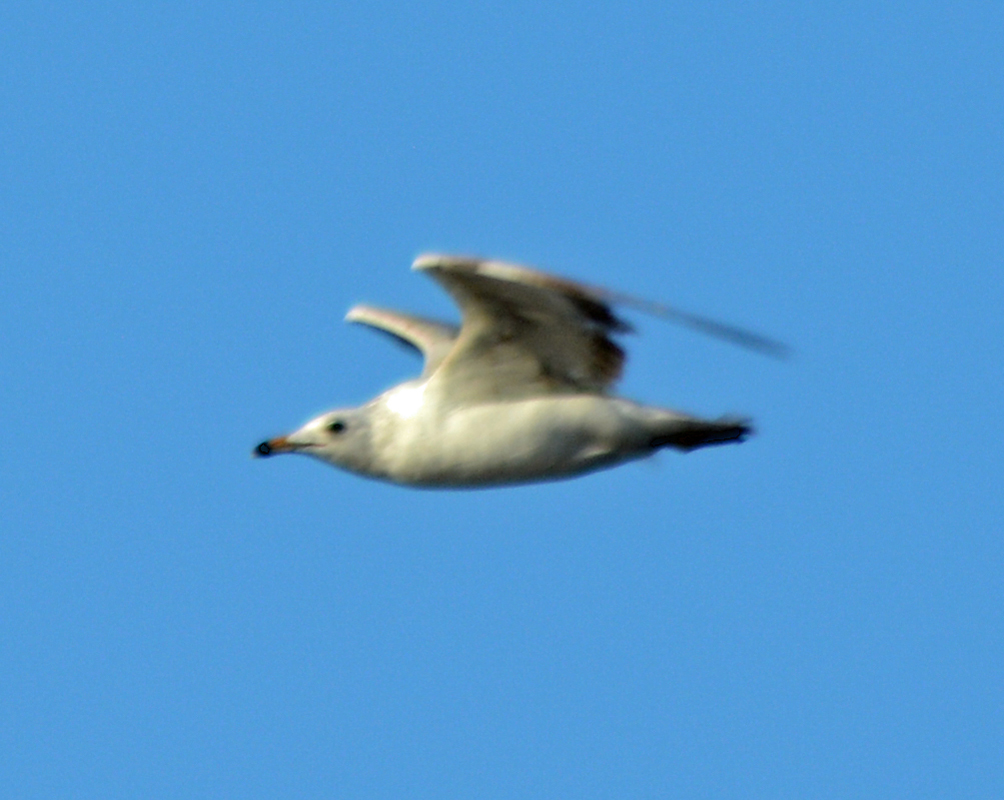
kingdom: Animalia
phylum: Chordata
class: Aves
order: Charadriiformes
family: Laridae
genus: Larus
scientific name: Larus delawarensis
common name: Ring-billed gull
